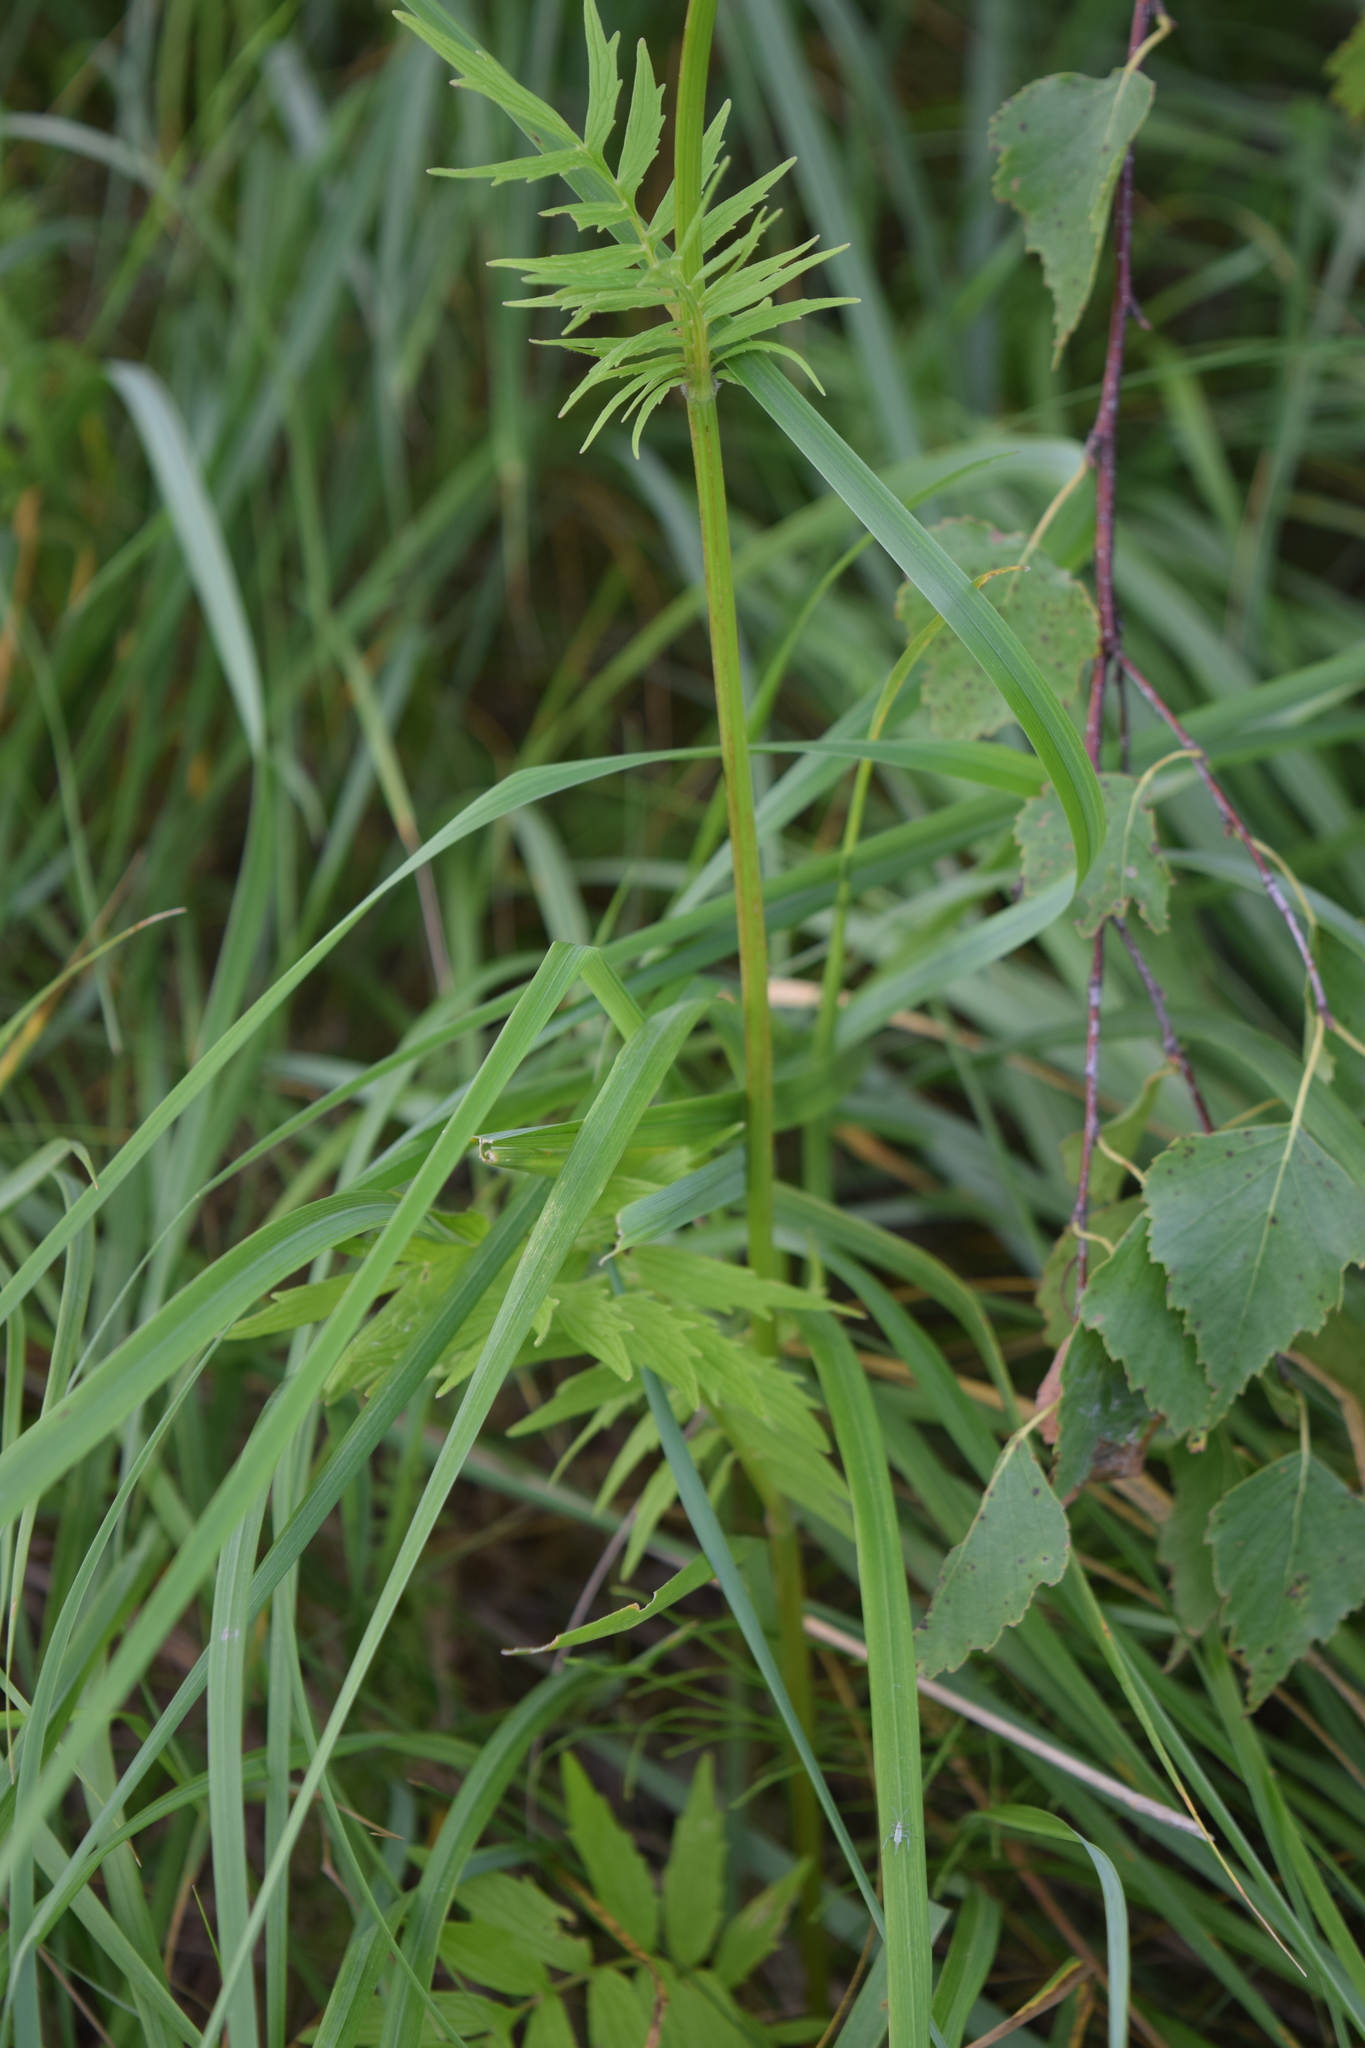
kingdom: Plantae
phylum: Tracheophyta
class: Magnoliopsida
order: Dipsacales
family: Caprifoliaceae
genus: Valeriana
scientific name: Valeriana officinalis
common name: Common valerian
